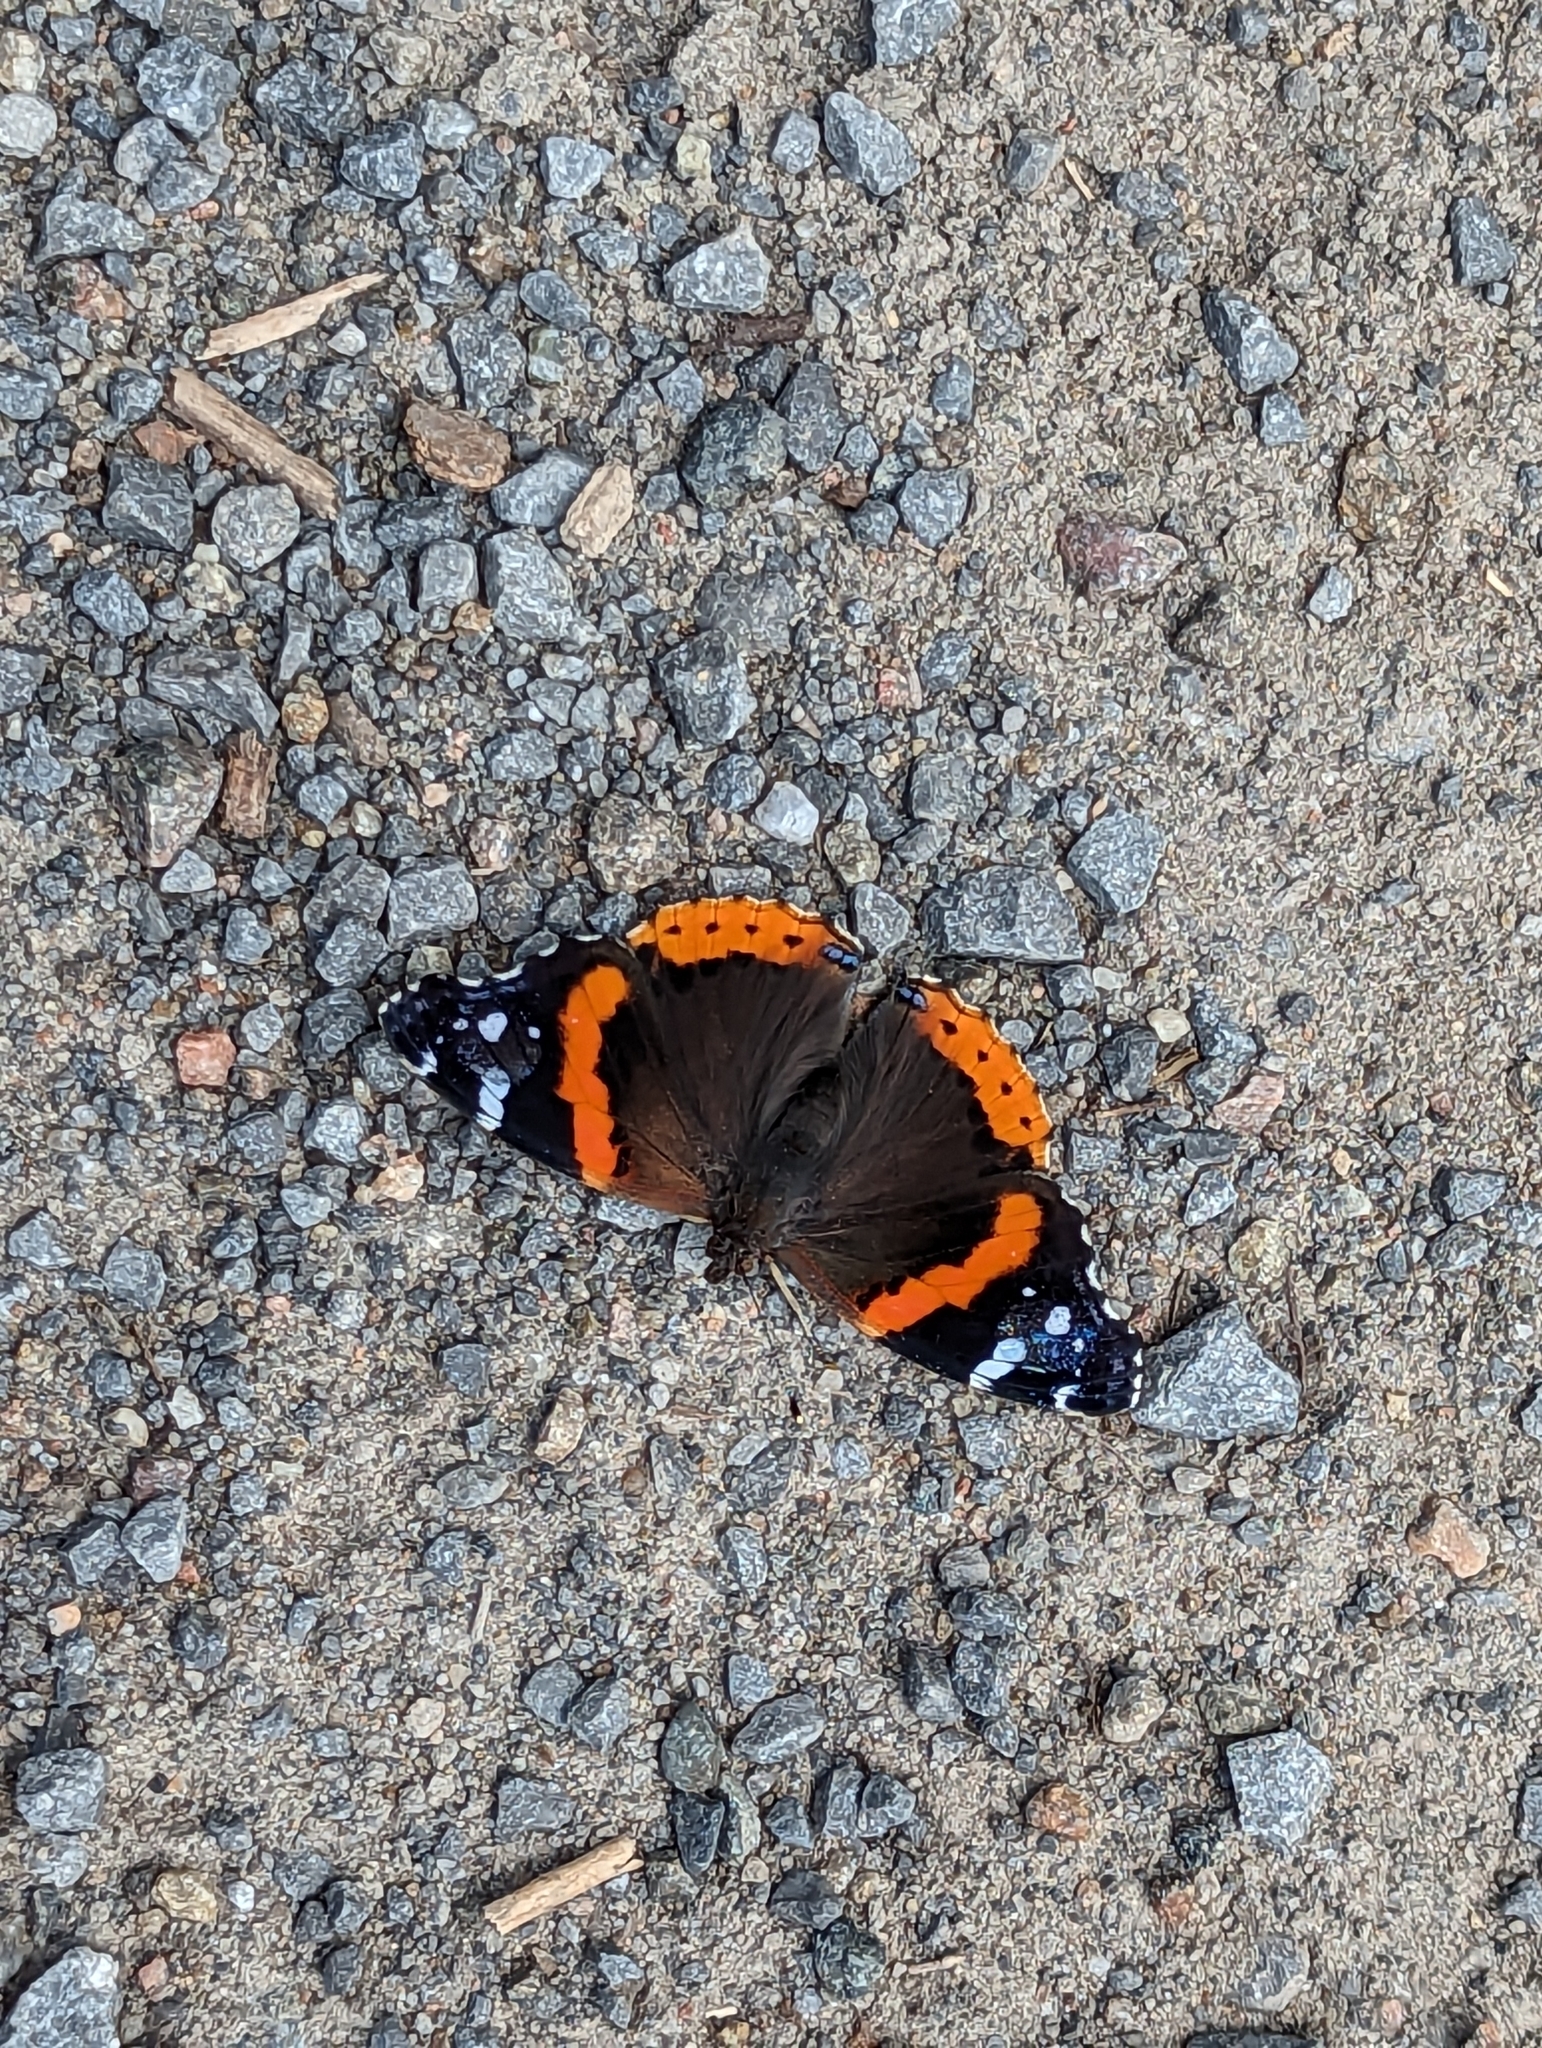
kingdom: Animalia
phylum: Arthropoda
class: Insecta
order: Lepidoptera
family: Nymphalidae
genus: Vanessa
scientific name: Vanessa atalanta
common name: Red admiral
